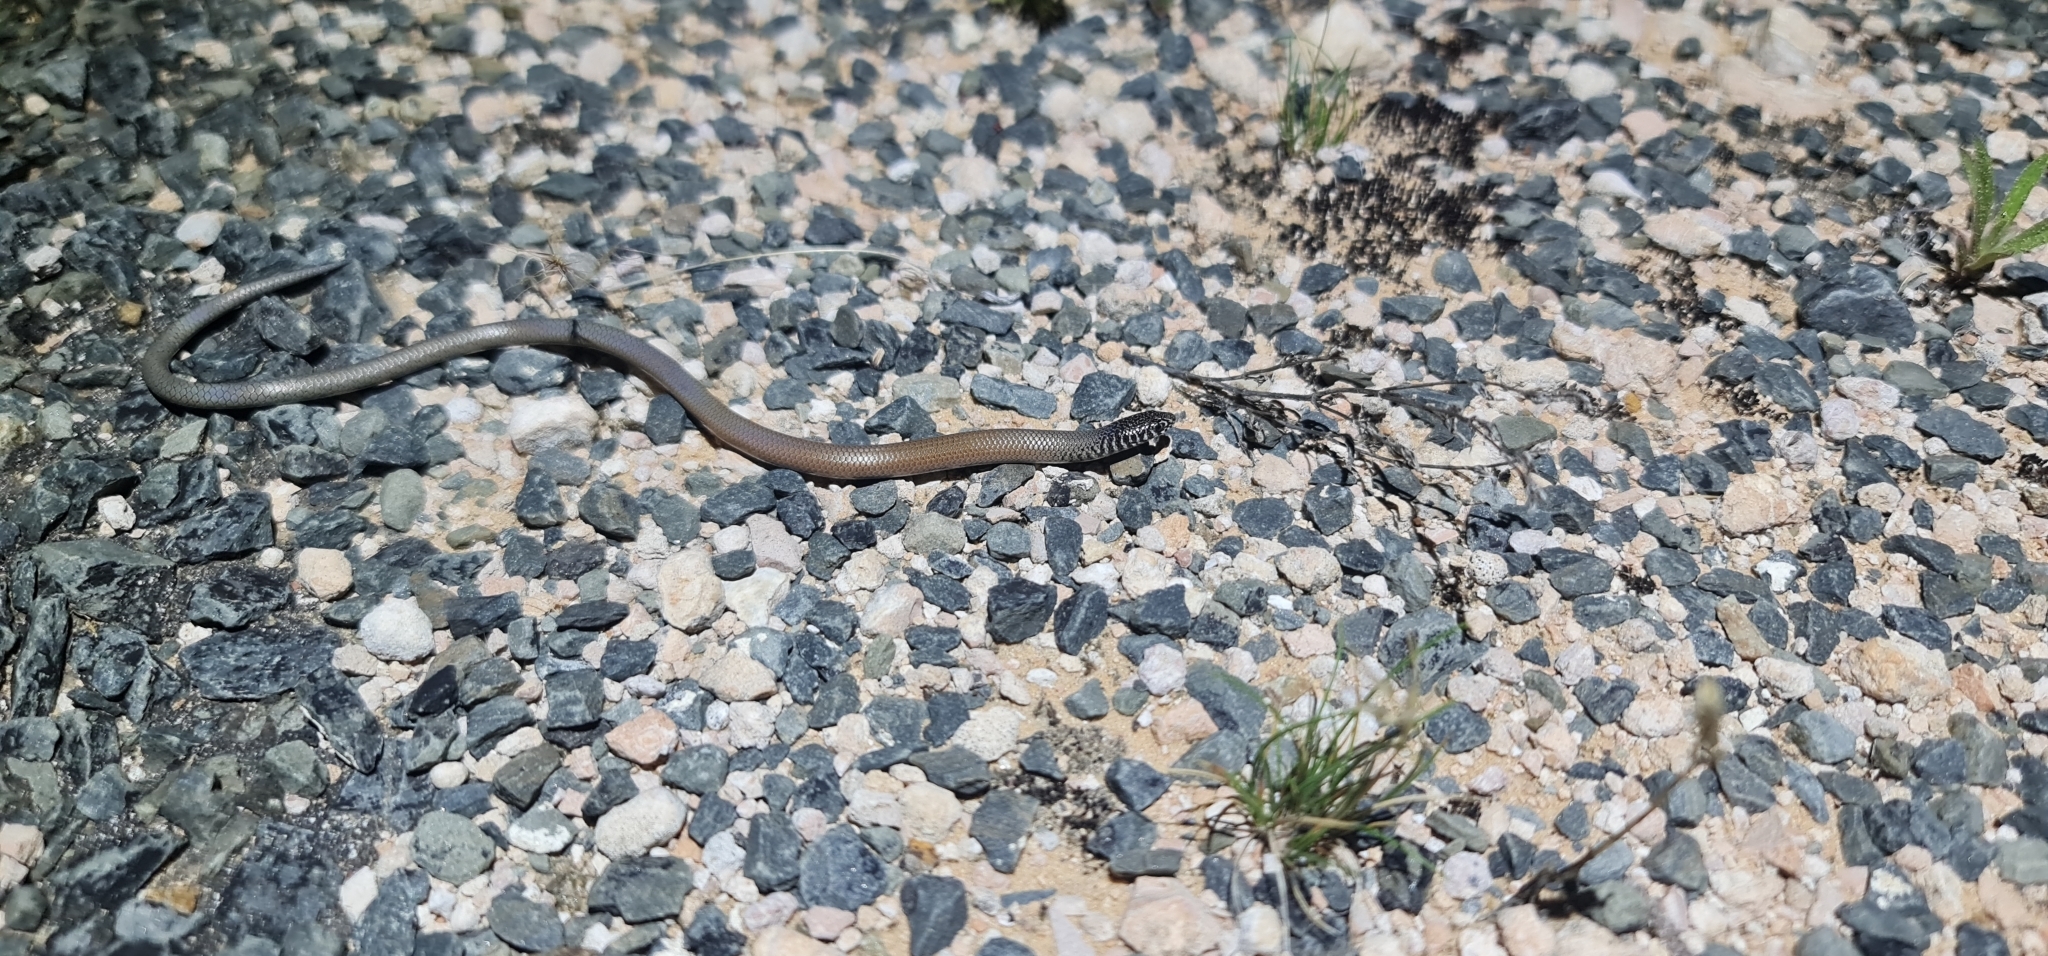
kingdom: Animalia
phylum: Chordata
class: Squamata
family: Pygopodidae
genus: Delma
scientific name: Delma australis
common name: Marble-faced delma
